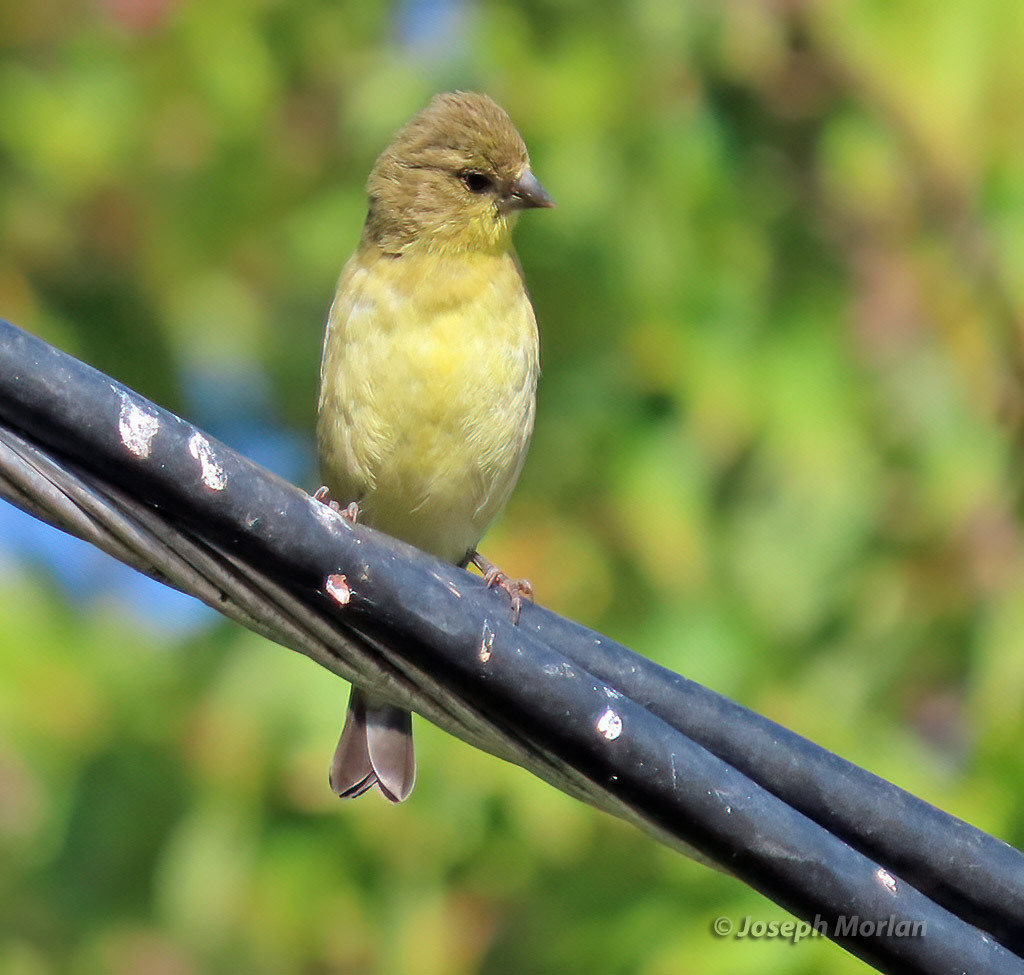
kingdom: Animalia
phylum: Chordata
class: Aves
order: Passeriformes
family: Fringillidae
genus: Spinus
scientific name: Spinus psaltria
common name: Lesser goldfinch
